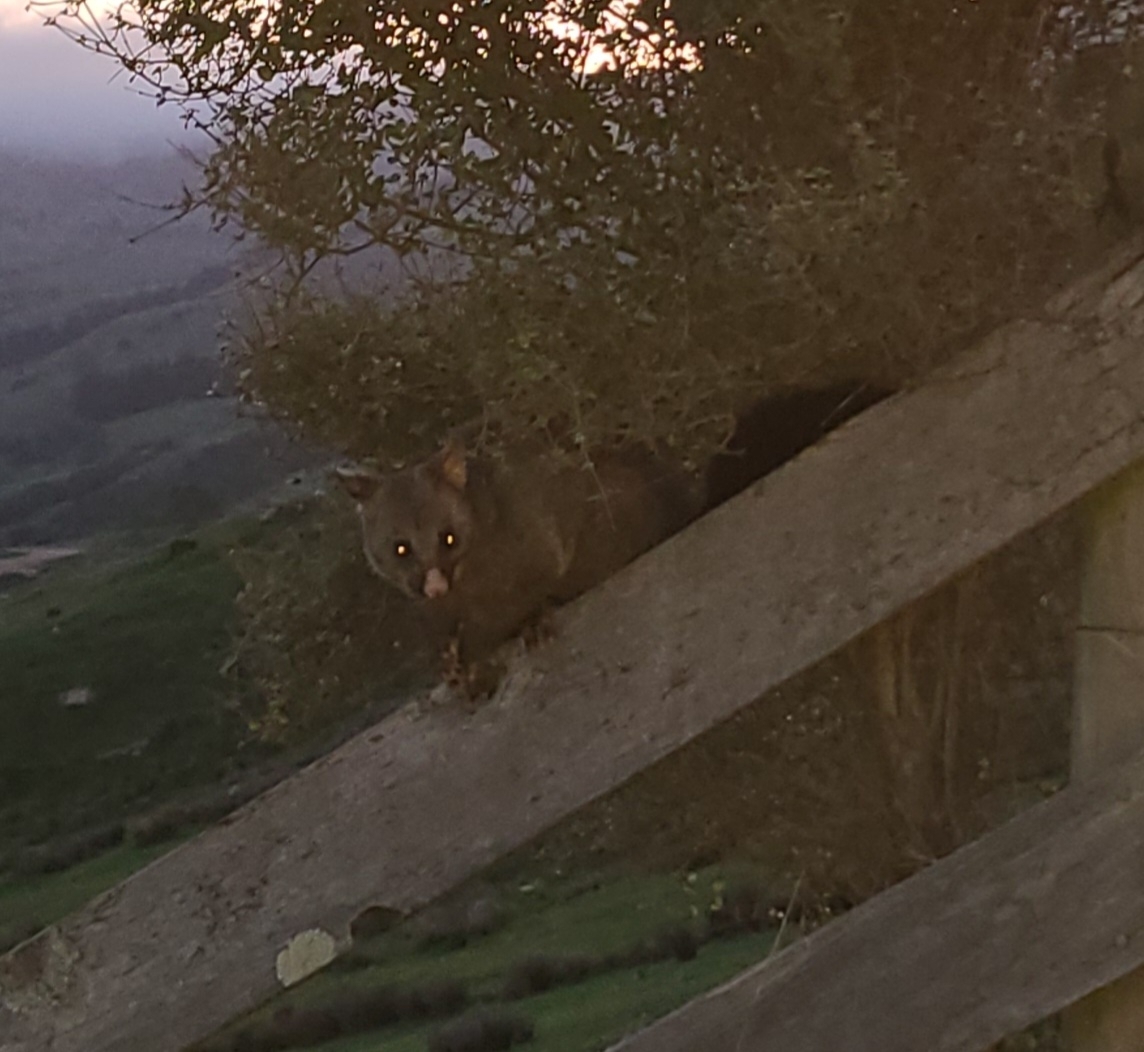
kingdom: Animalia
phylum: Chordata
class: Mammalia
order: Diprotodontia
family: Phalangeridae
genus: Trichosurus
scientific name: Trichosurus vulpecula
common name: Common brushtail
